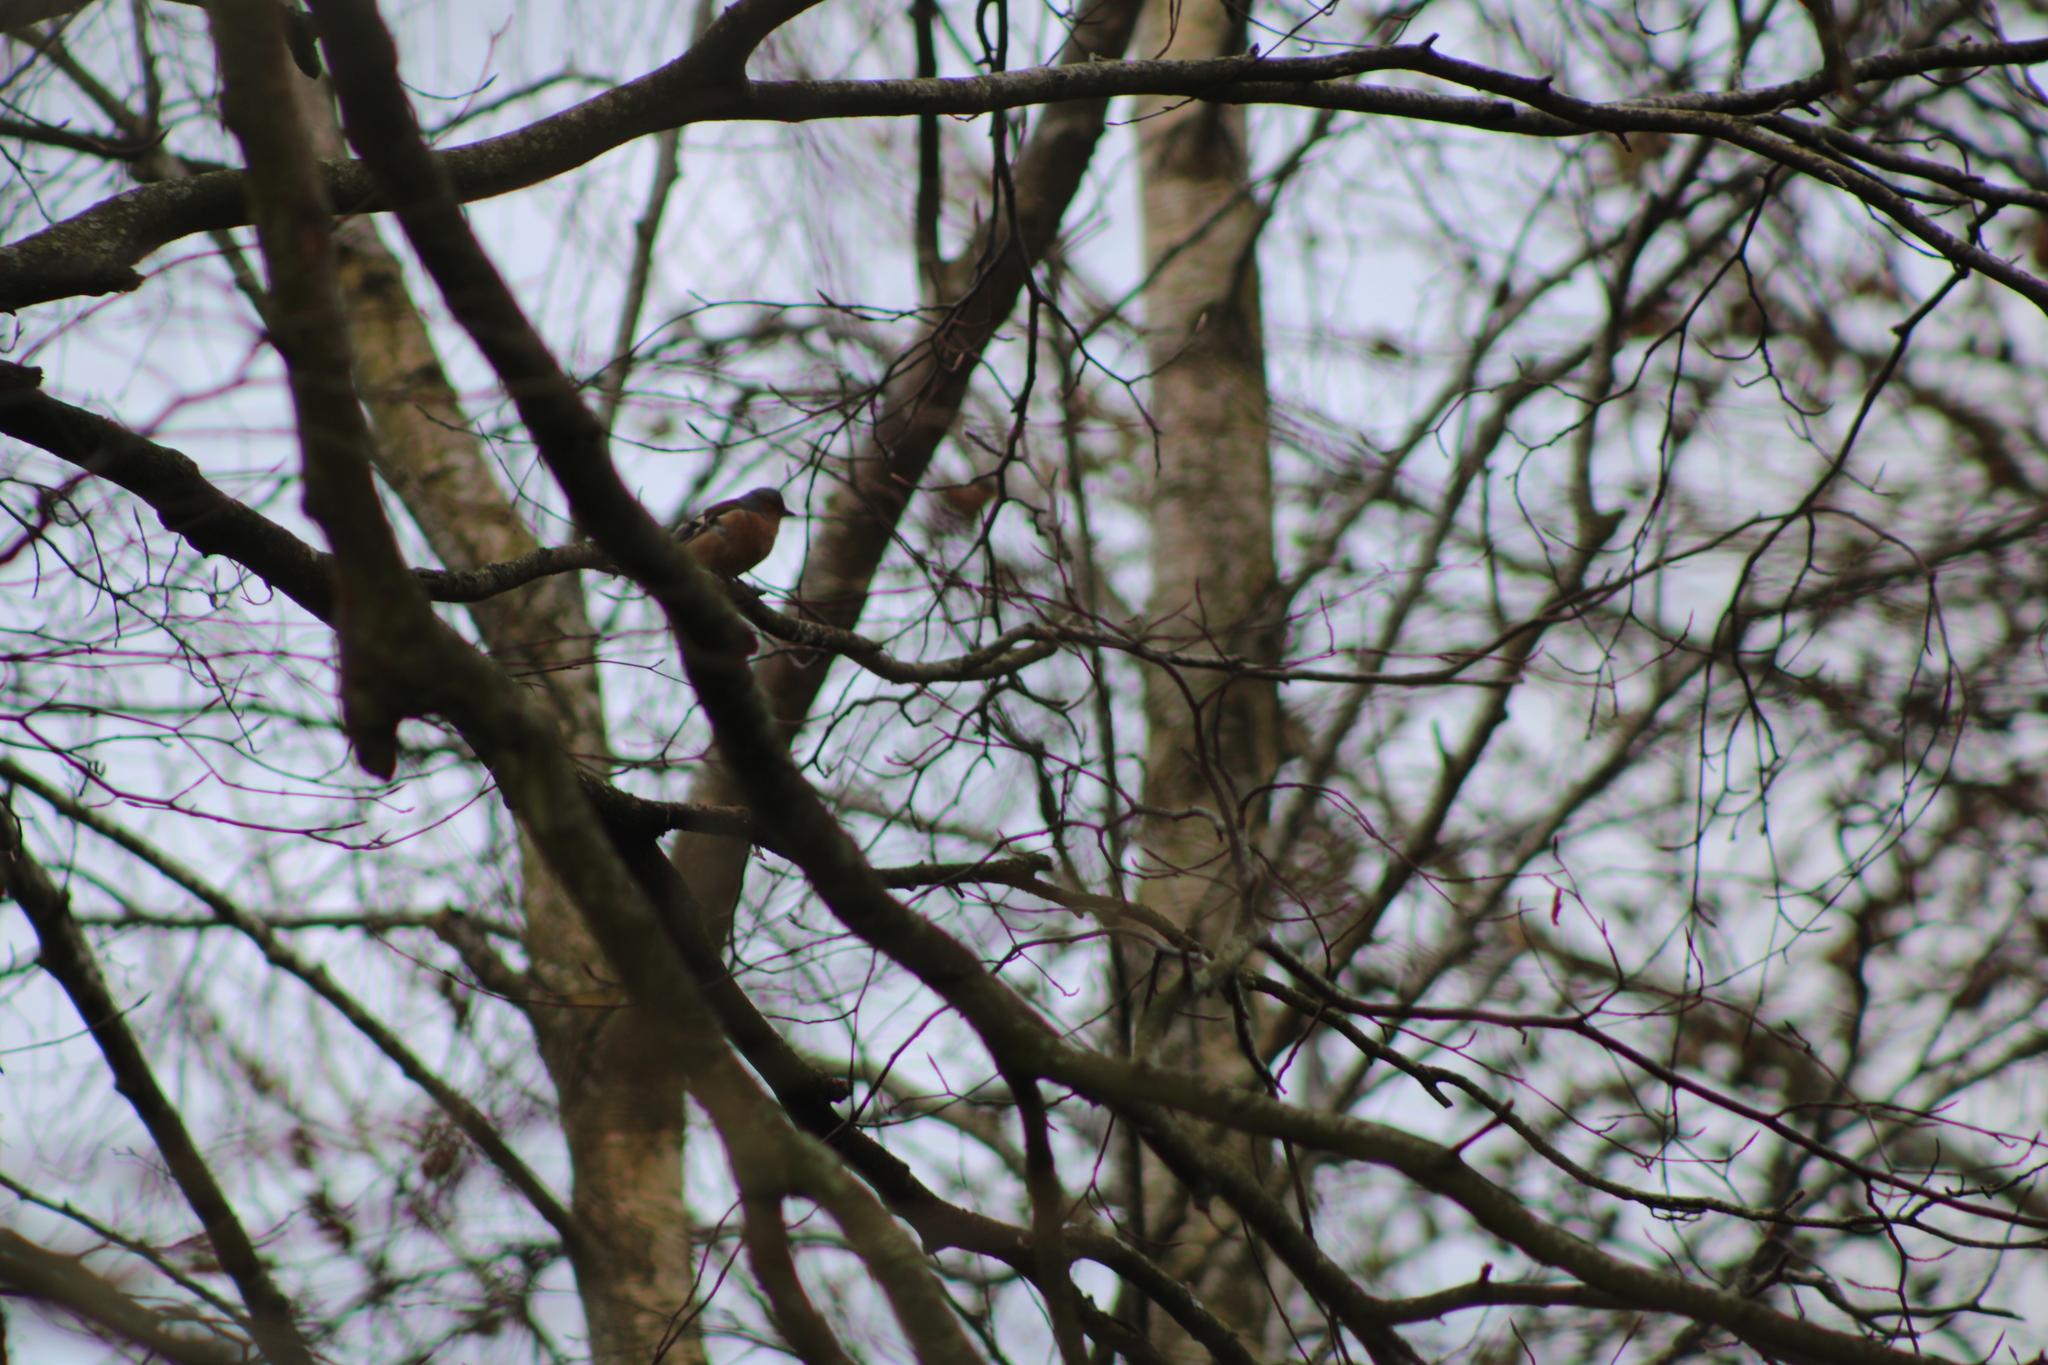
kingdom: Animalia
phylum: Chordata
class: Aves
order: Passeriformes
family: Fringillidae
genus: Fringilla
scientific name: Fringilla coelebs
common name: Common chaffinch
